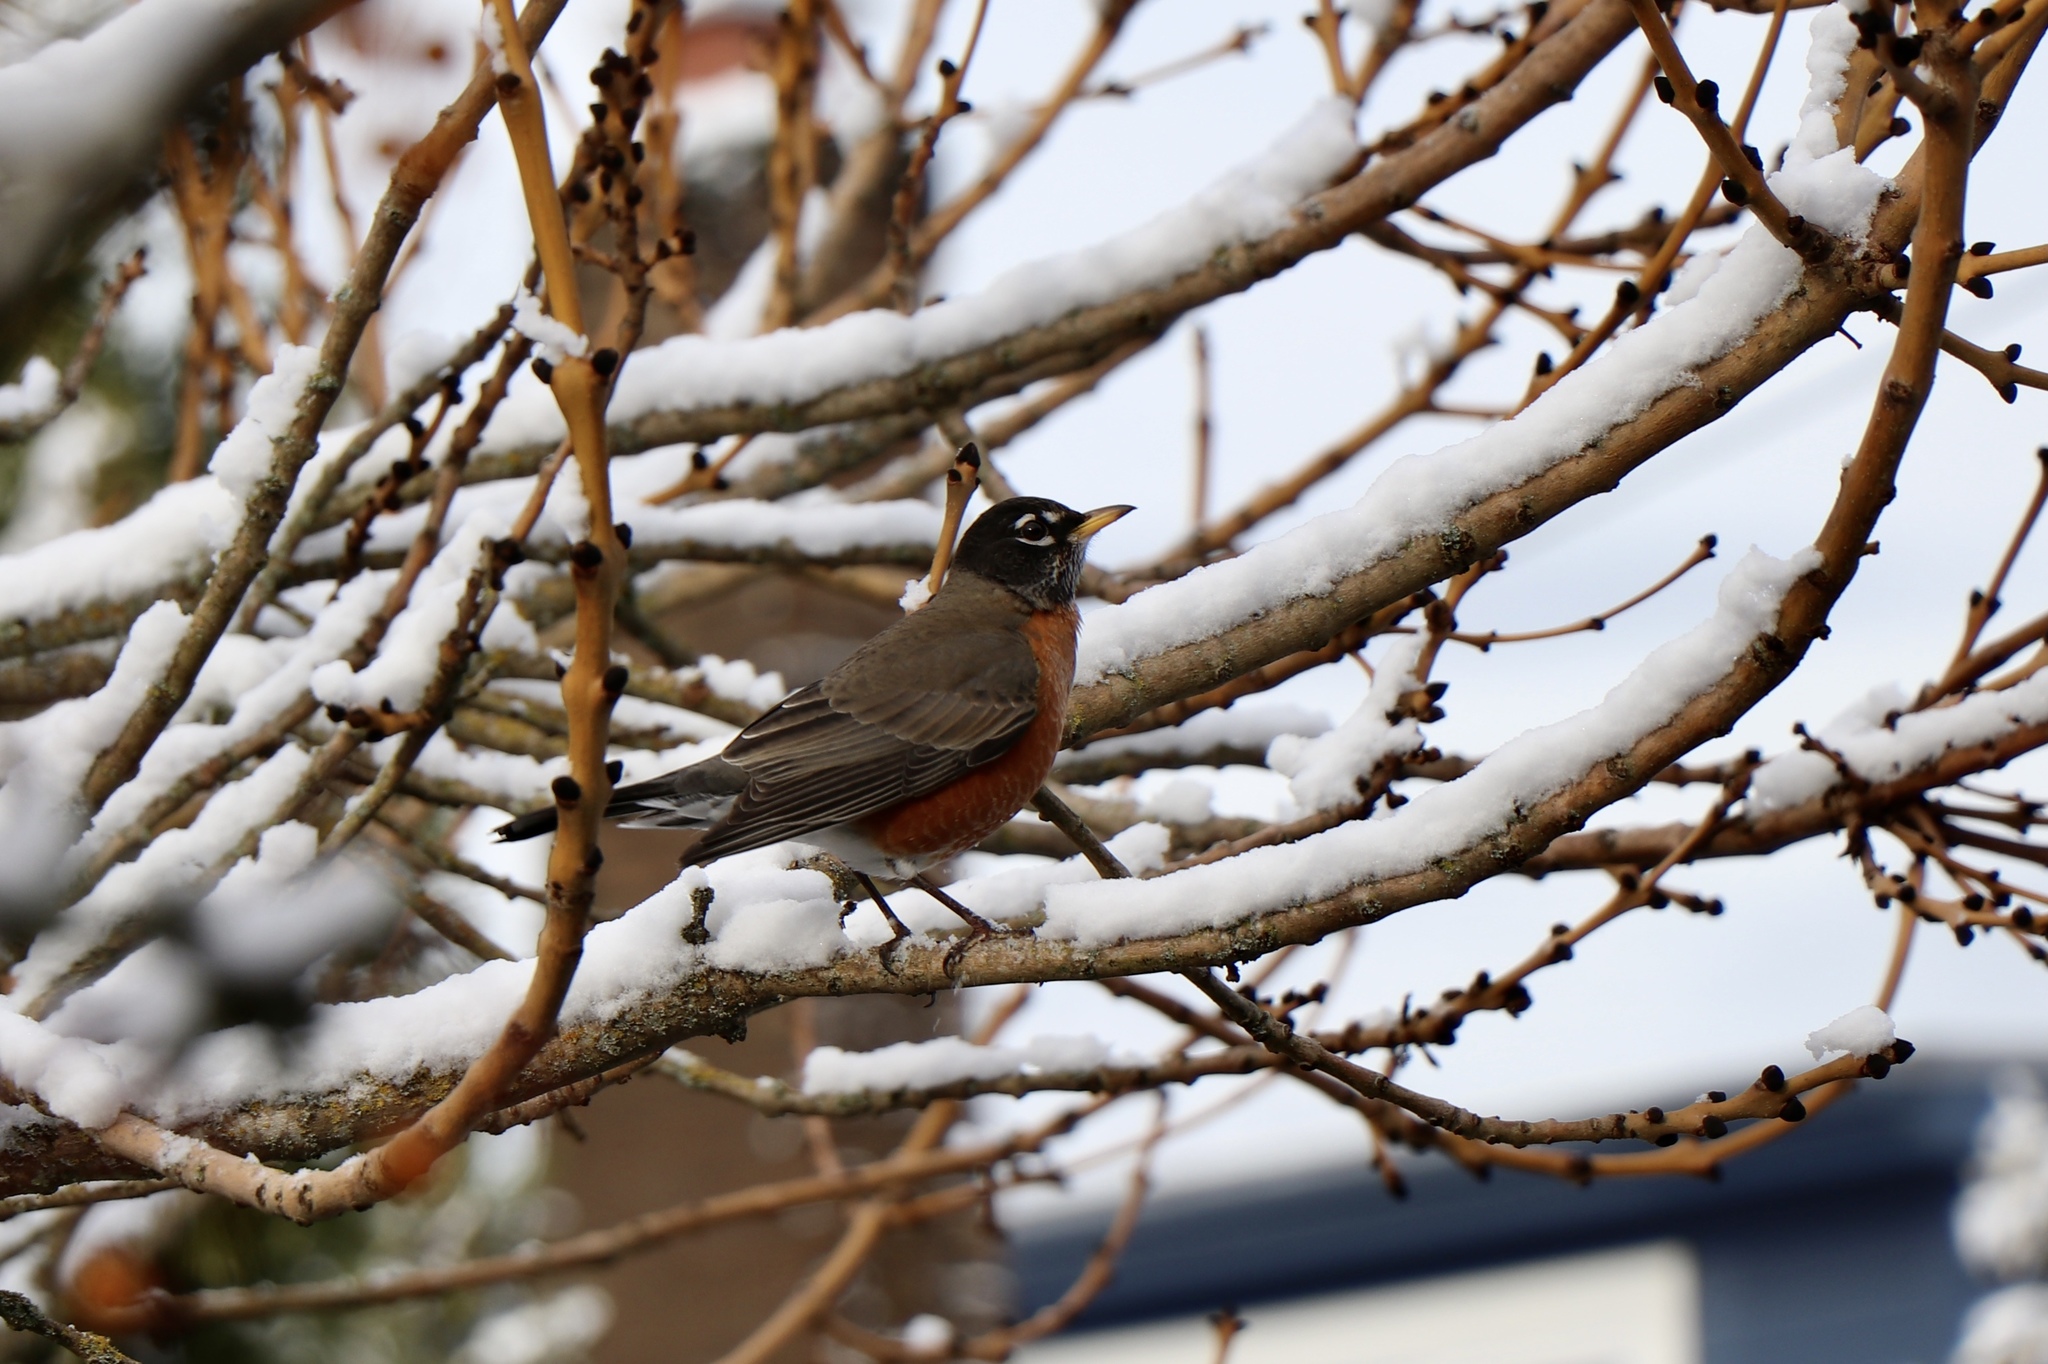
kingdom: Animalia
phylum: Chordata
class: Aves
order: Passeriformes
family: Turdidae
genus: Turdus
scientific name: Turdus migratorius
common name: American robin
